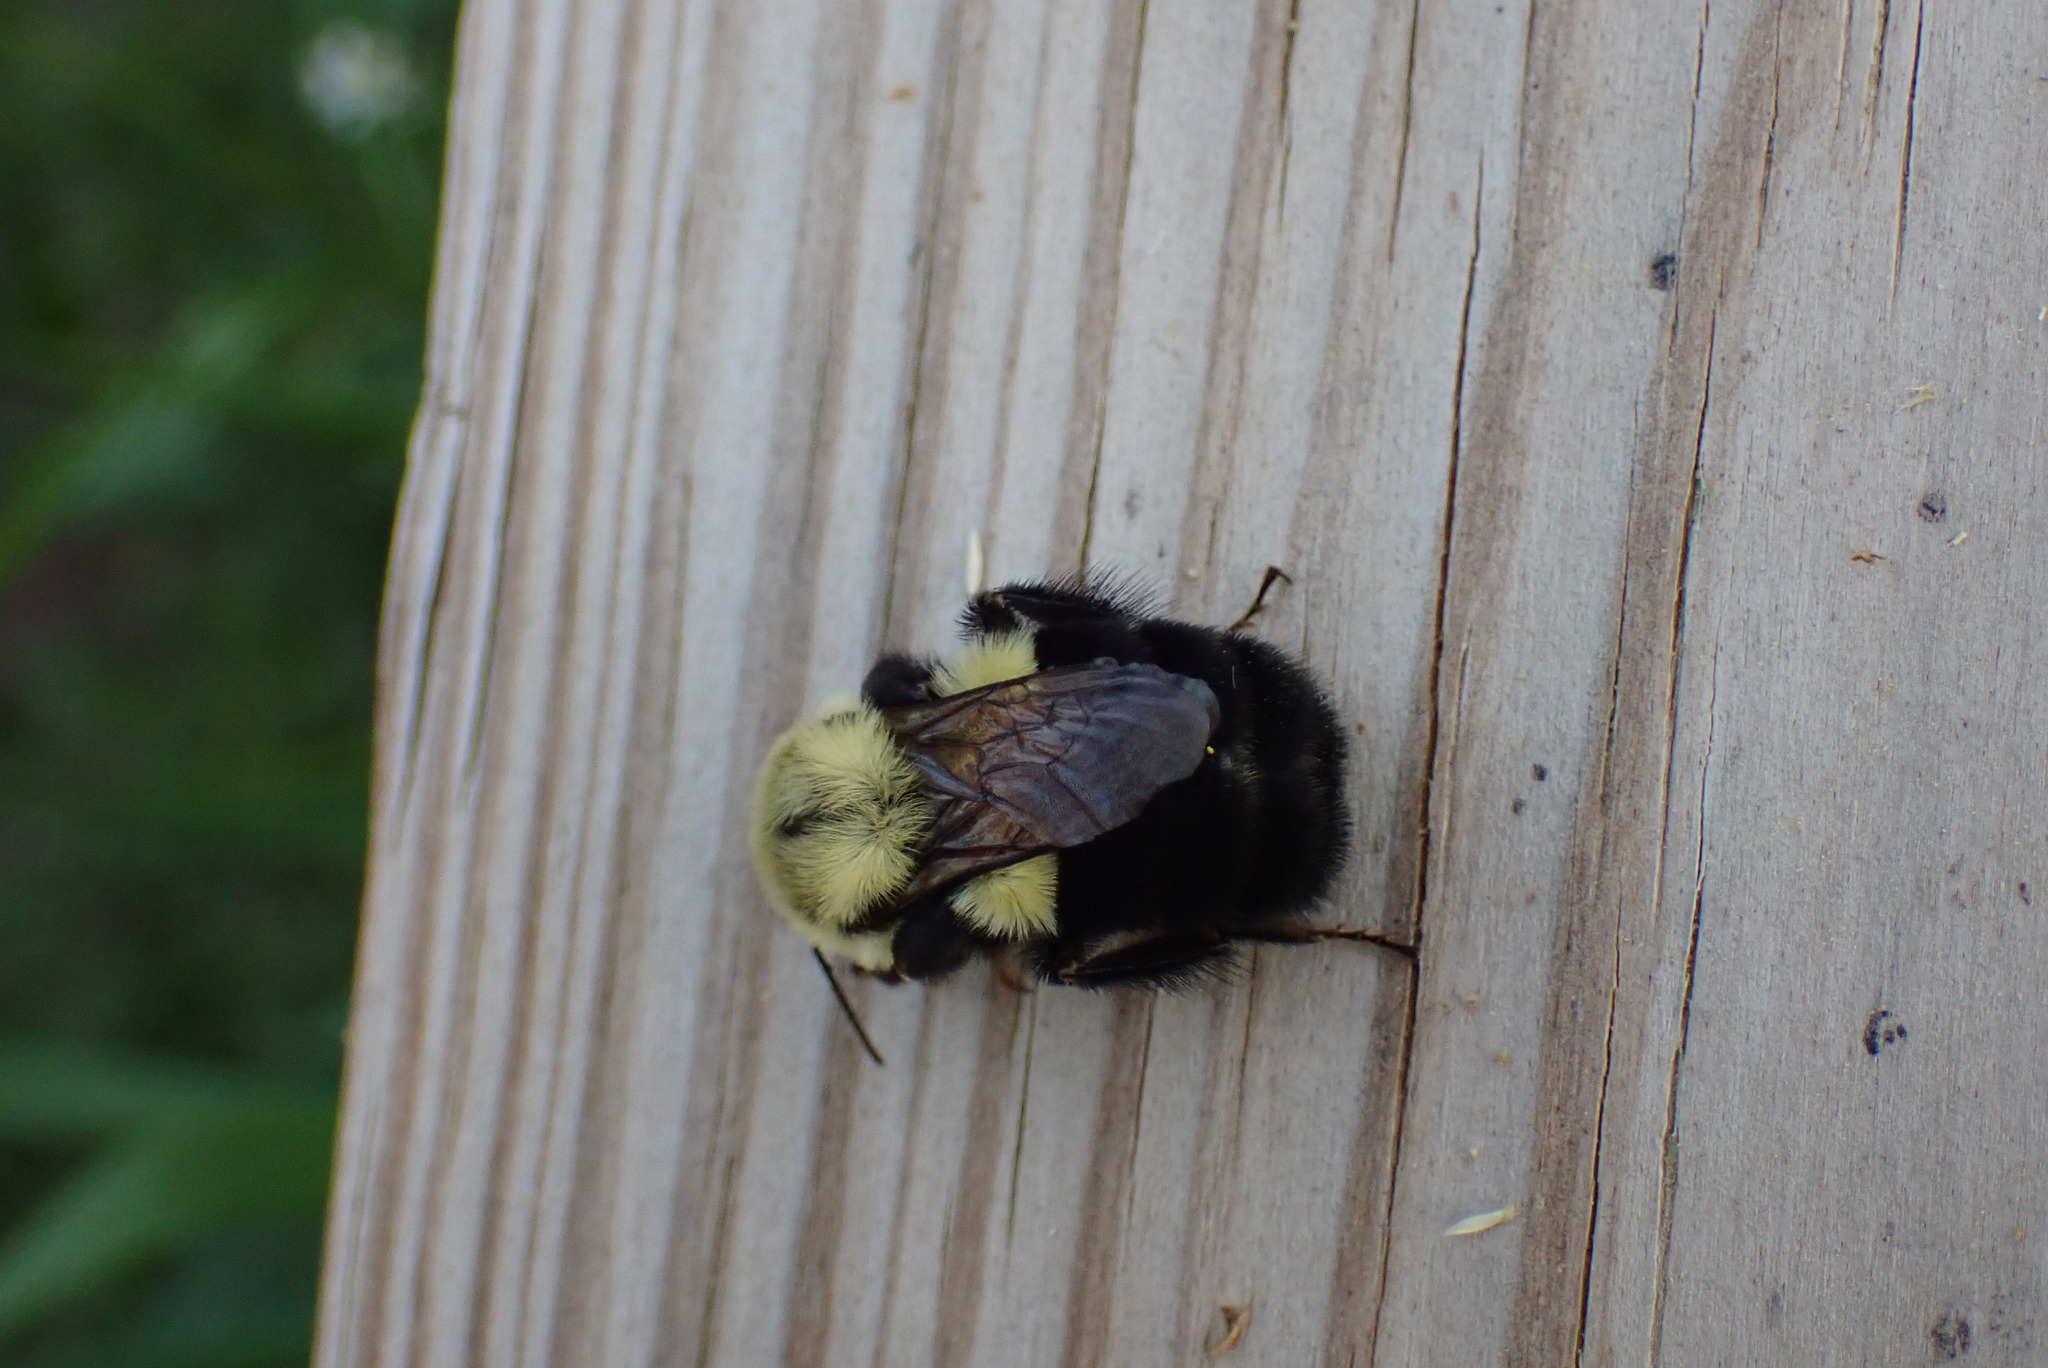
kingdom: Animalia
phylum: Arthropoda
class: Insecta
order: Hymenoptera
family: Apidae
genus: Bombus
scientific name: Bombus impatiens
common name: Common eastern bumble bee
